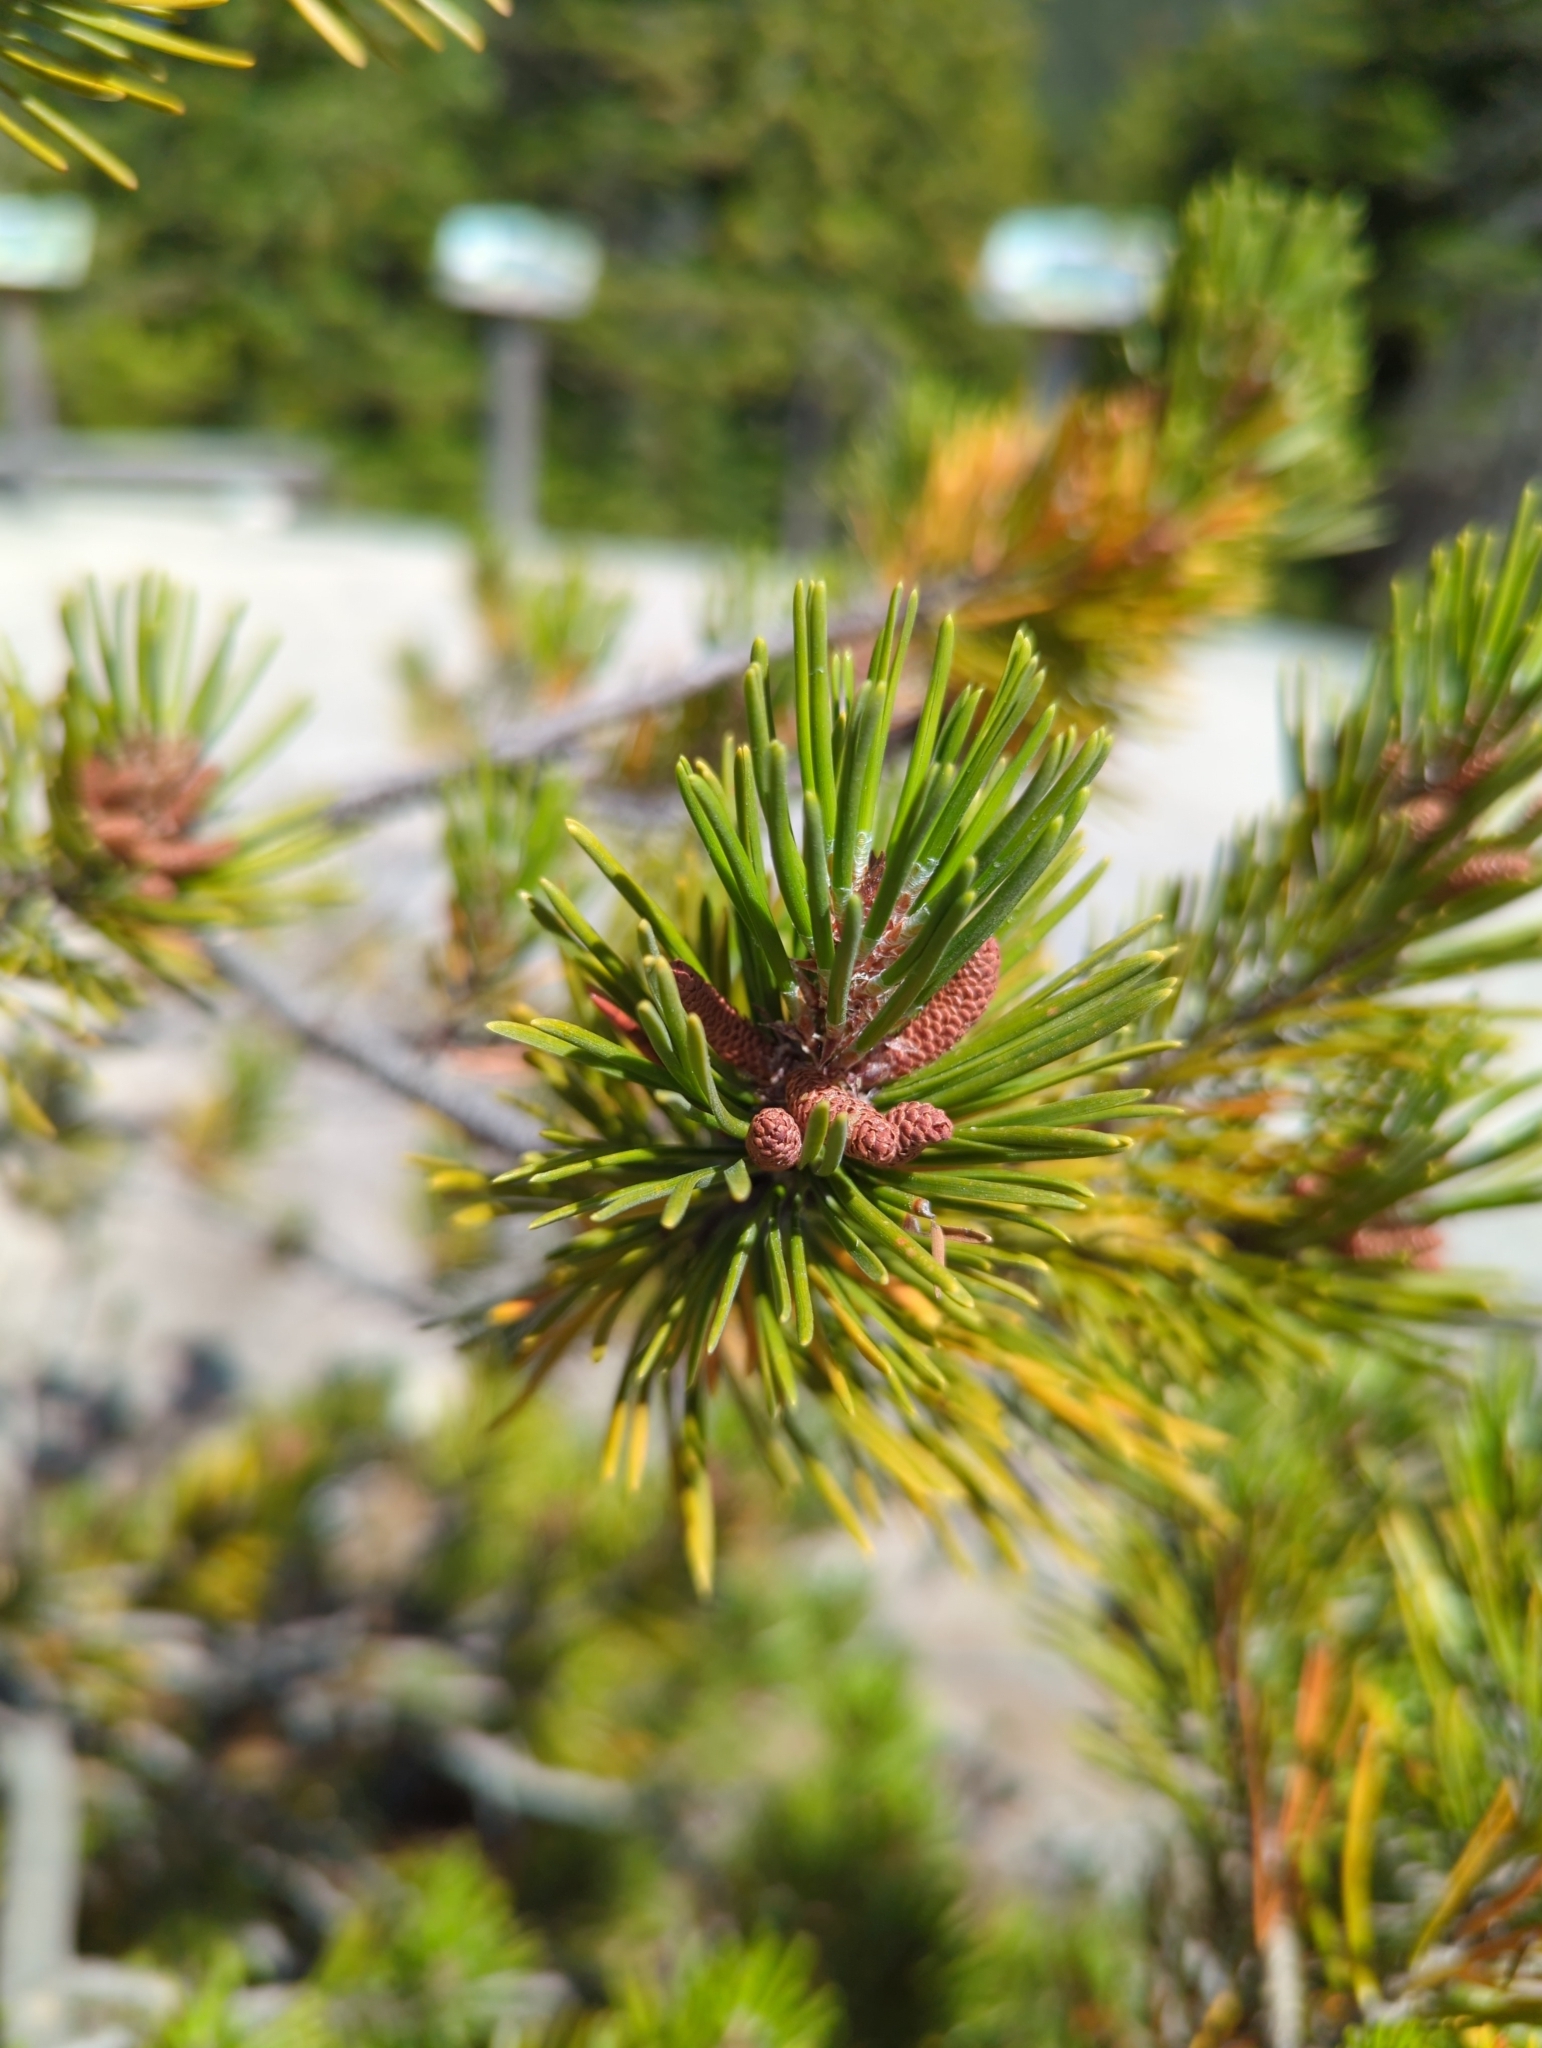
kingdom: Plantae
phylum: Tracheophyta
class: Pinopsida
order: Pinales
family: Pinaceae
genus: Pinus
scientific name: Pinus contorta
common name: Lodgepole pine
